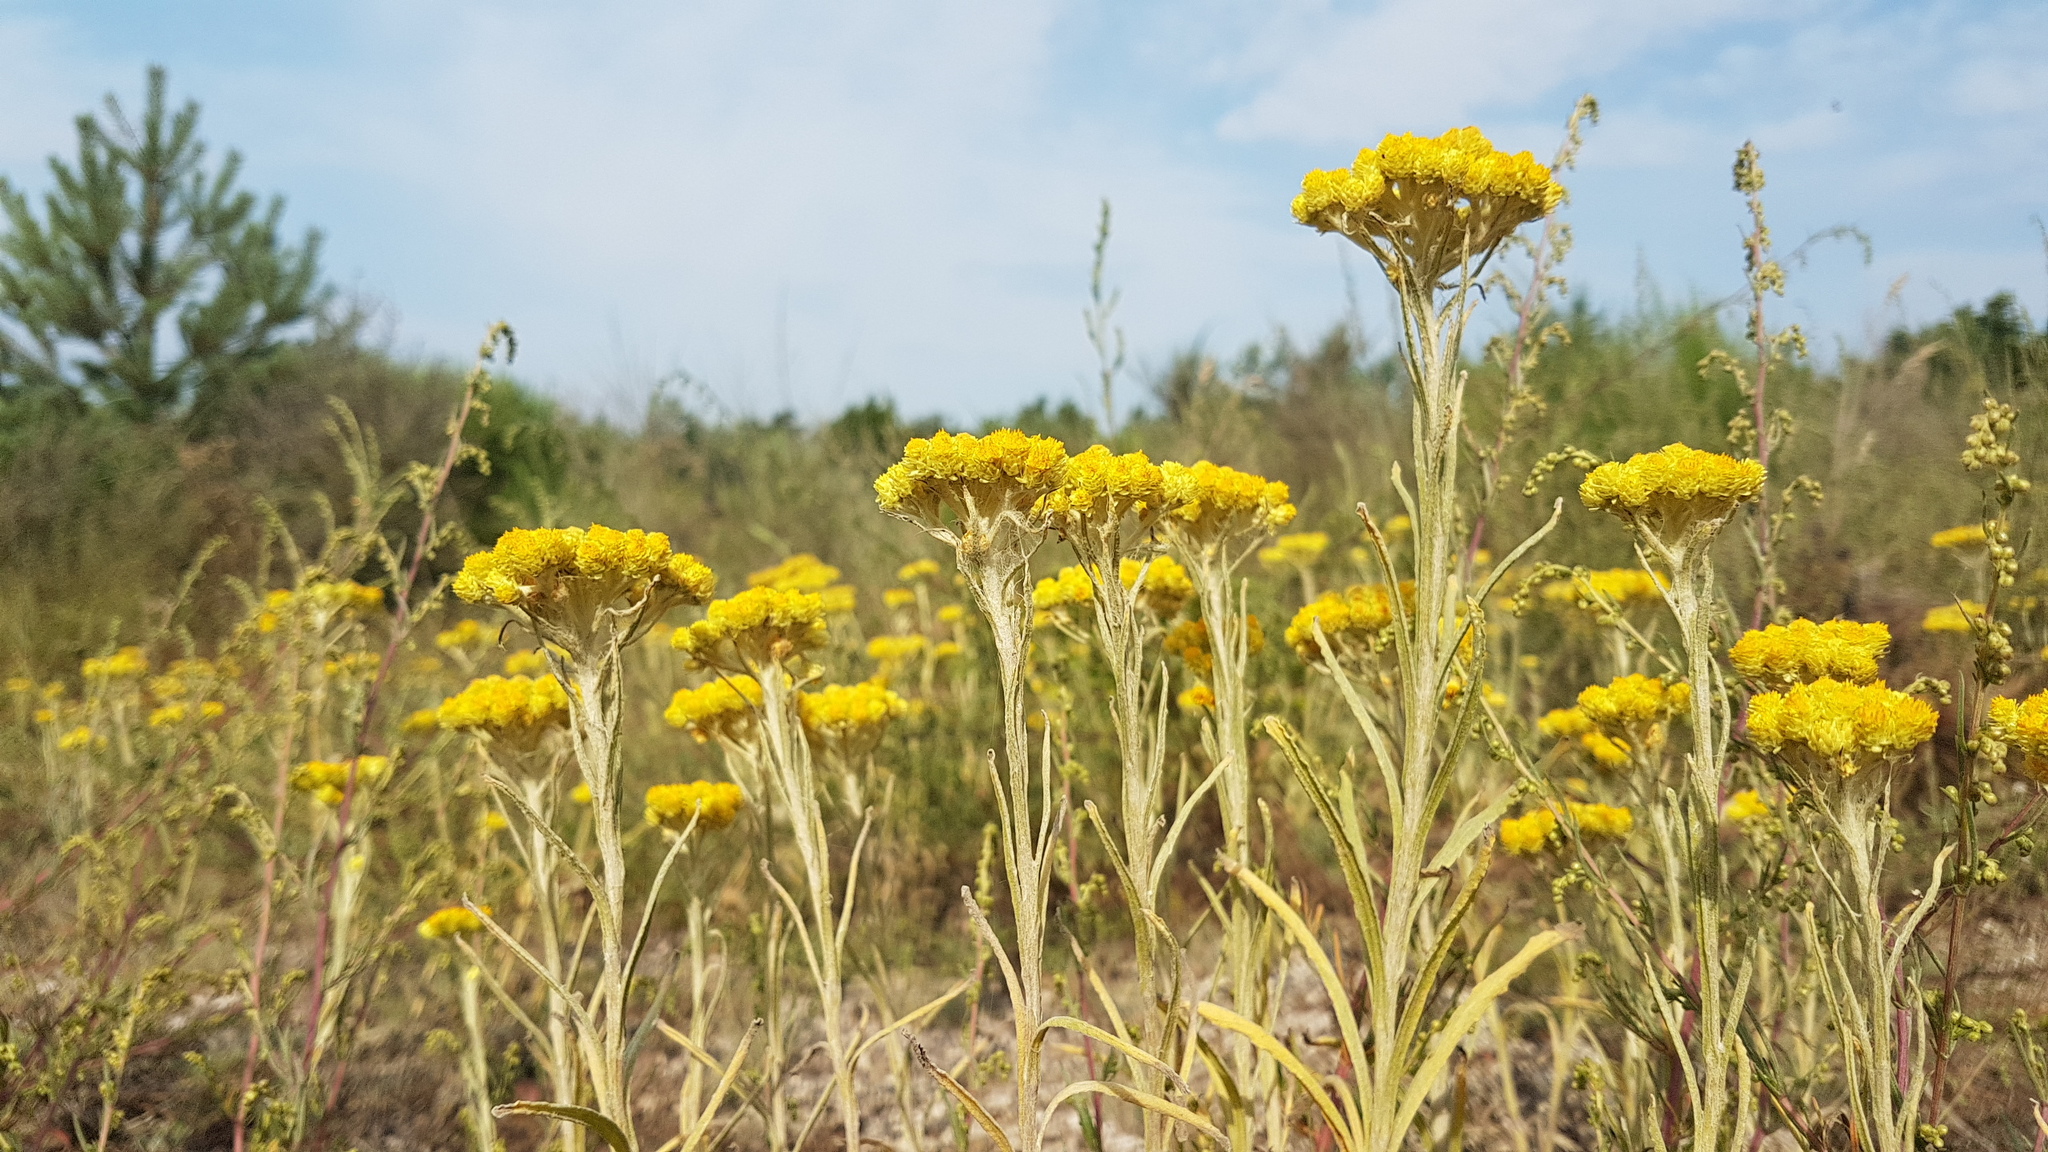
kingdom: Plantae
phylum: Tracheophyta
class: Magnoliopsida
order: Asterales
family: Asteraceae
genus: Helichrysum
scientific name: Helichrysum arenarium
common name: Strawflower
